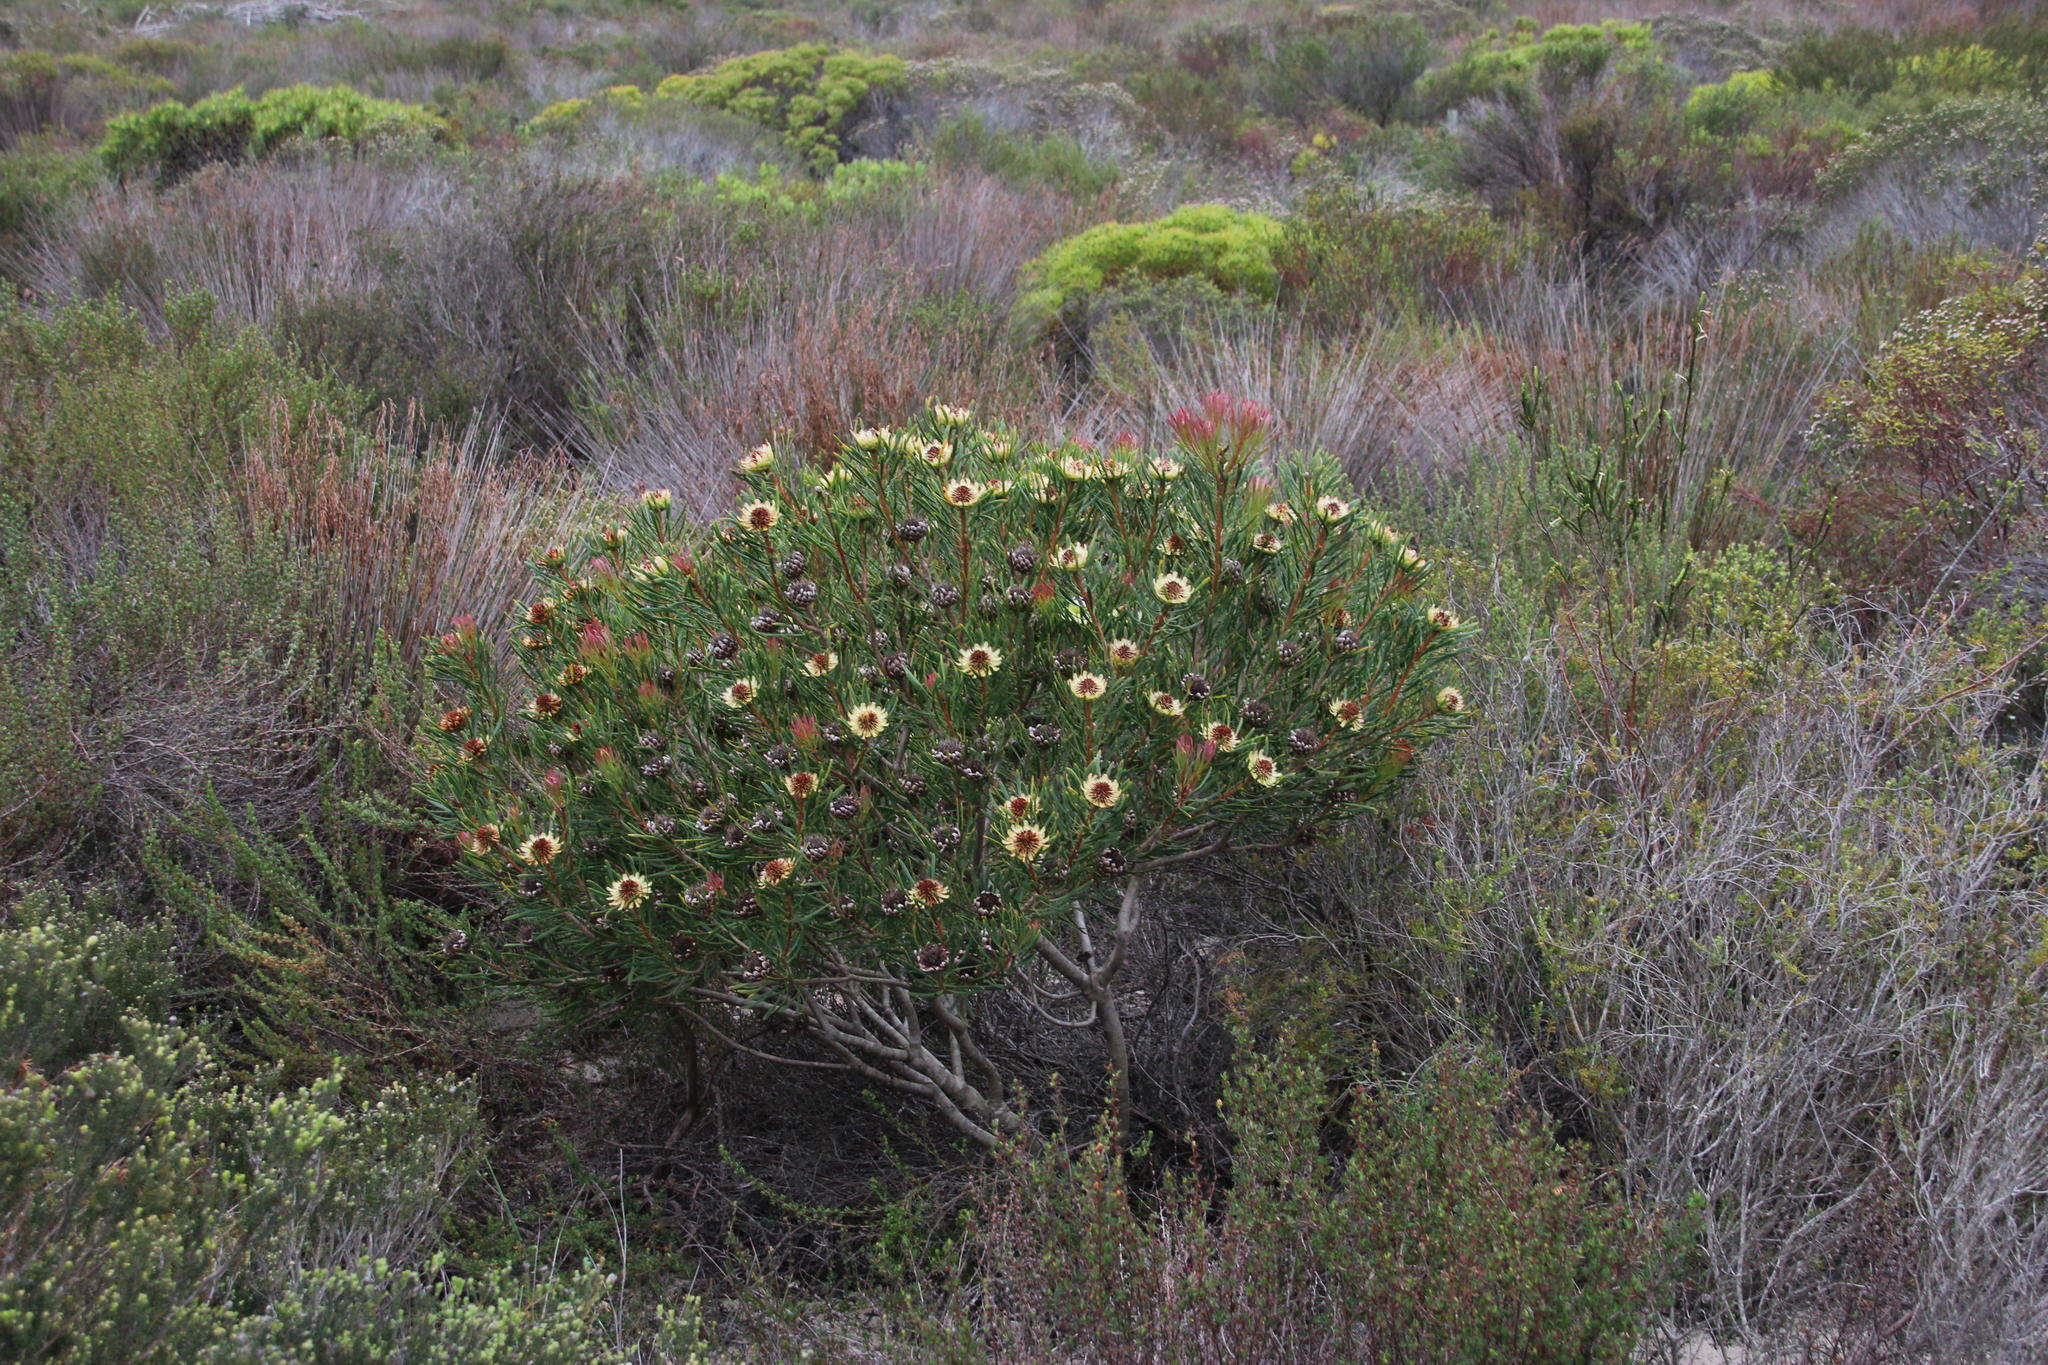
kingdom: Plantae
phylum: Tracheophyta
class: Magnoliopsida
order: Proteales
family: Proteaceae
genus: Protea
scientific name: Protea scolymocephala
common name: Thistle sugarbush
